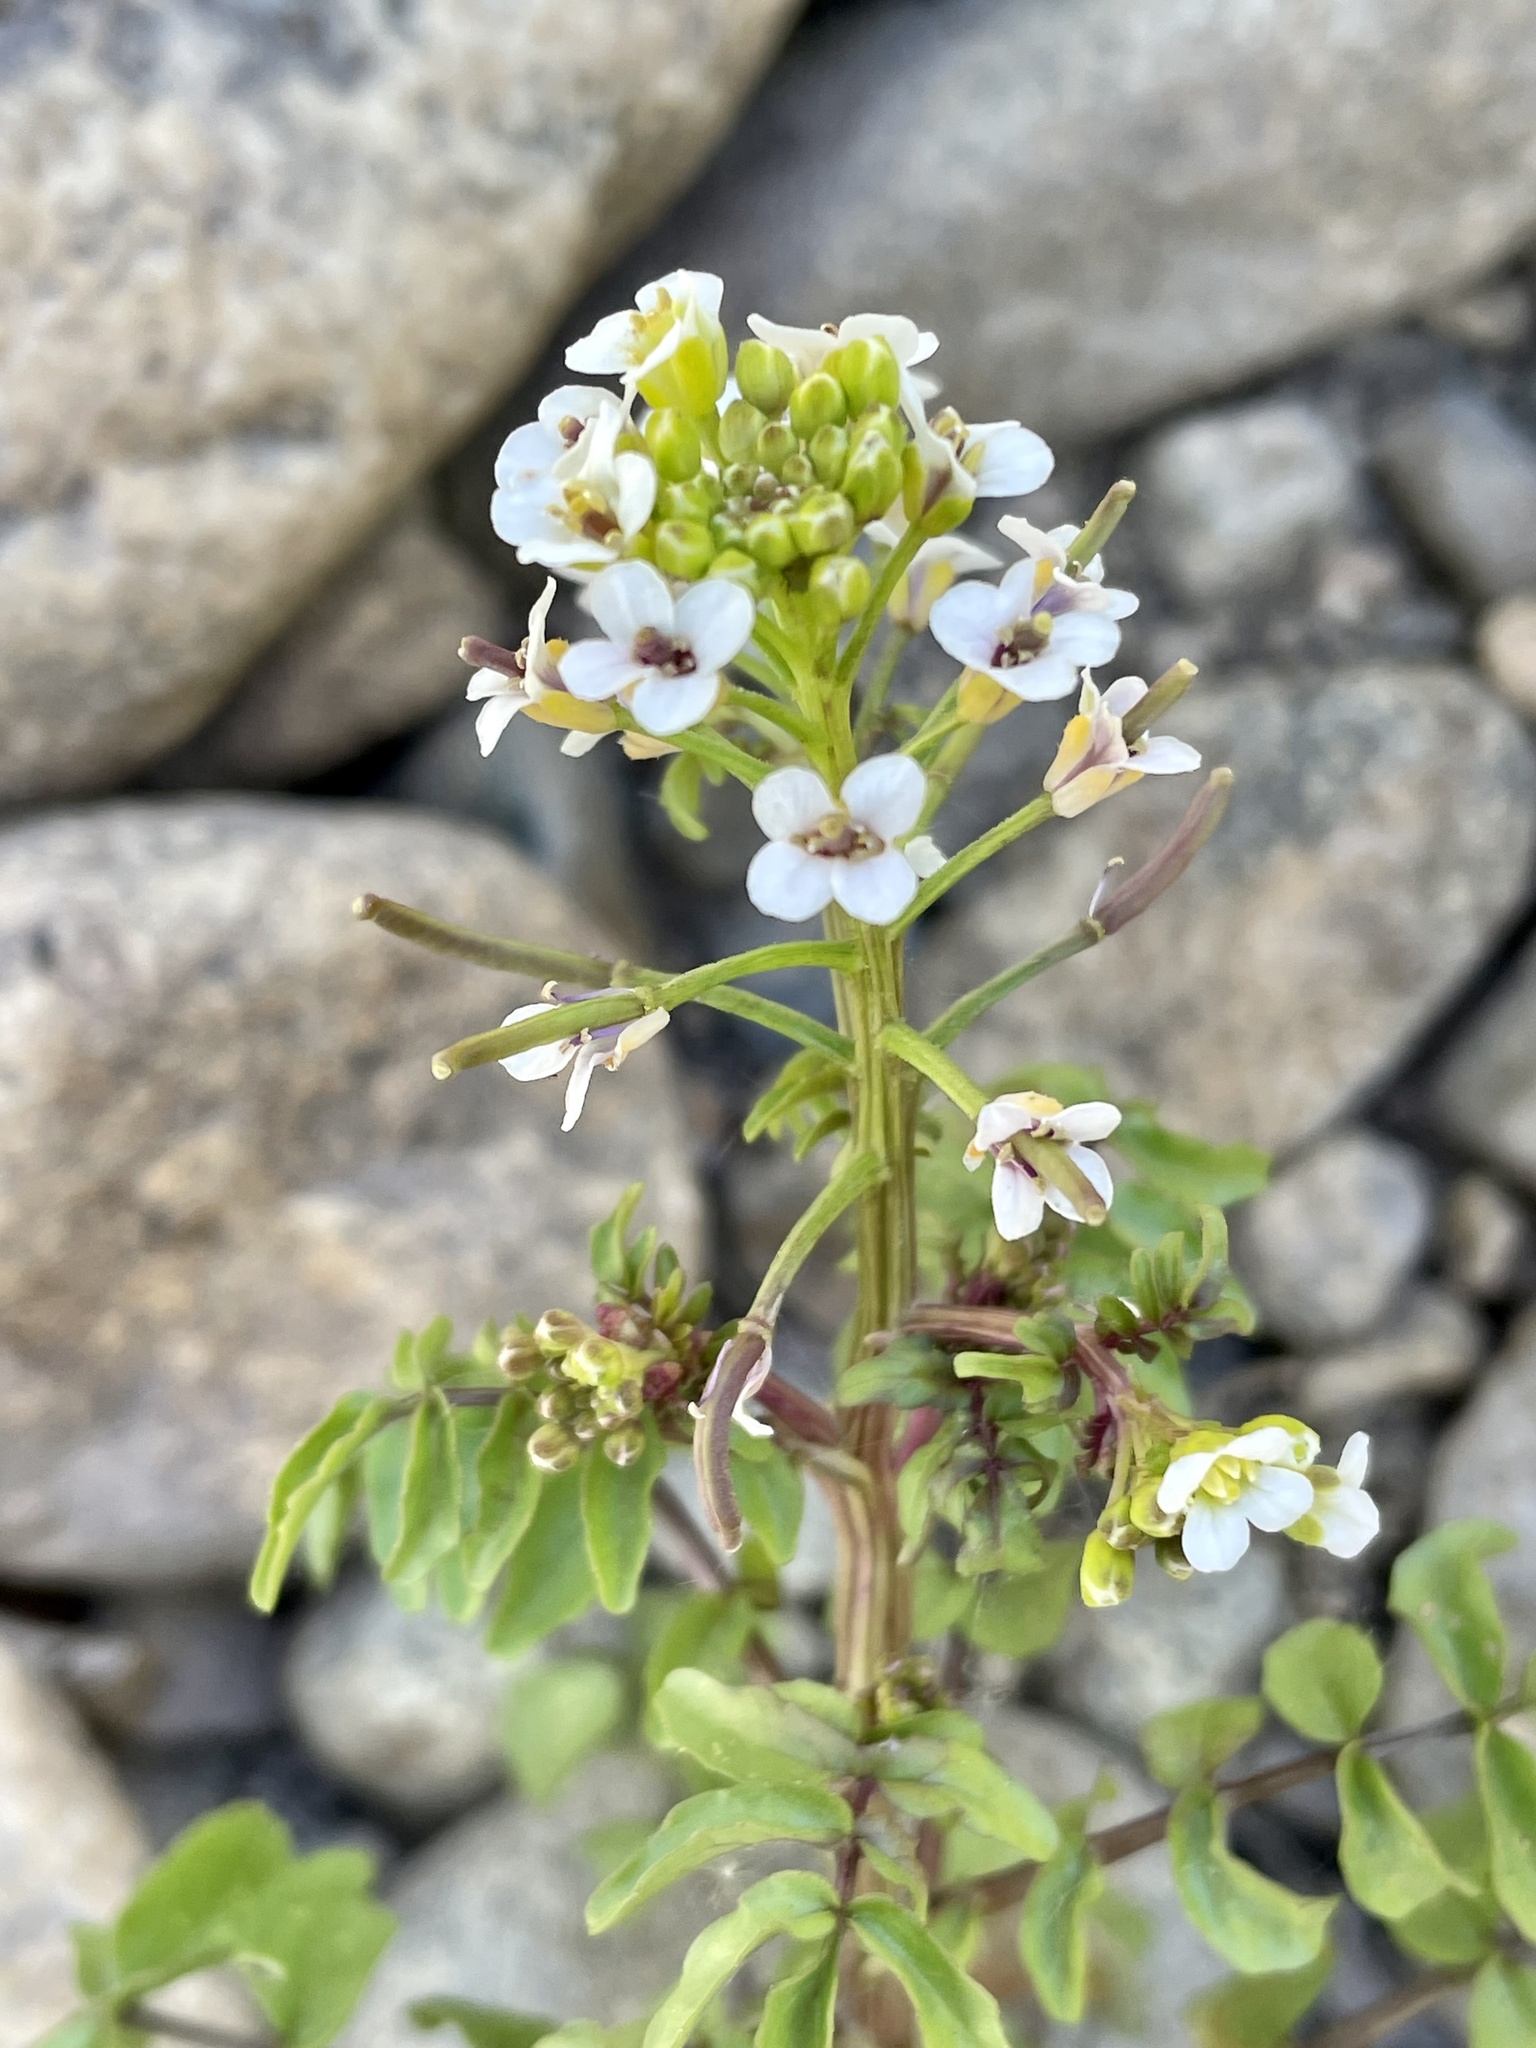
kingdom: Plantae
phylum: Tracheophyta
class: Magnoliopsida
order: Brassicales
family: Brassicaceae
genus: Nasturtium
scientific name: Nasturtium officinale
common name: Watercress
